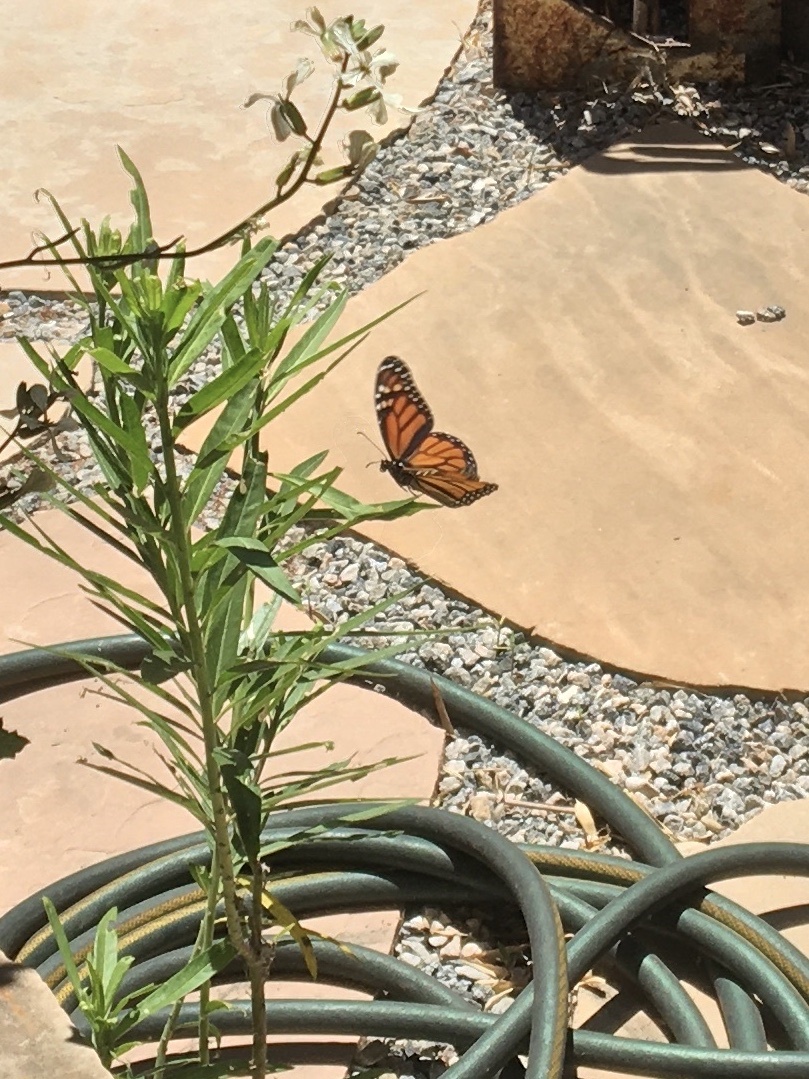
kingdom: Animalia
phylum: Arthropoda
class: Insecta
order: Lepidoptera
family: Nymphalidae
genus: Danaus
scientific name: Danaus plexippus
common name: Monarch
